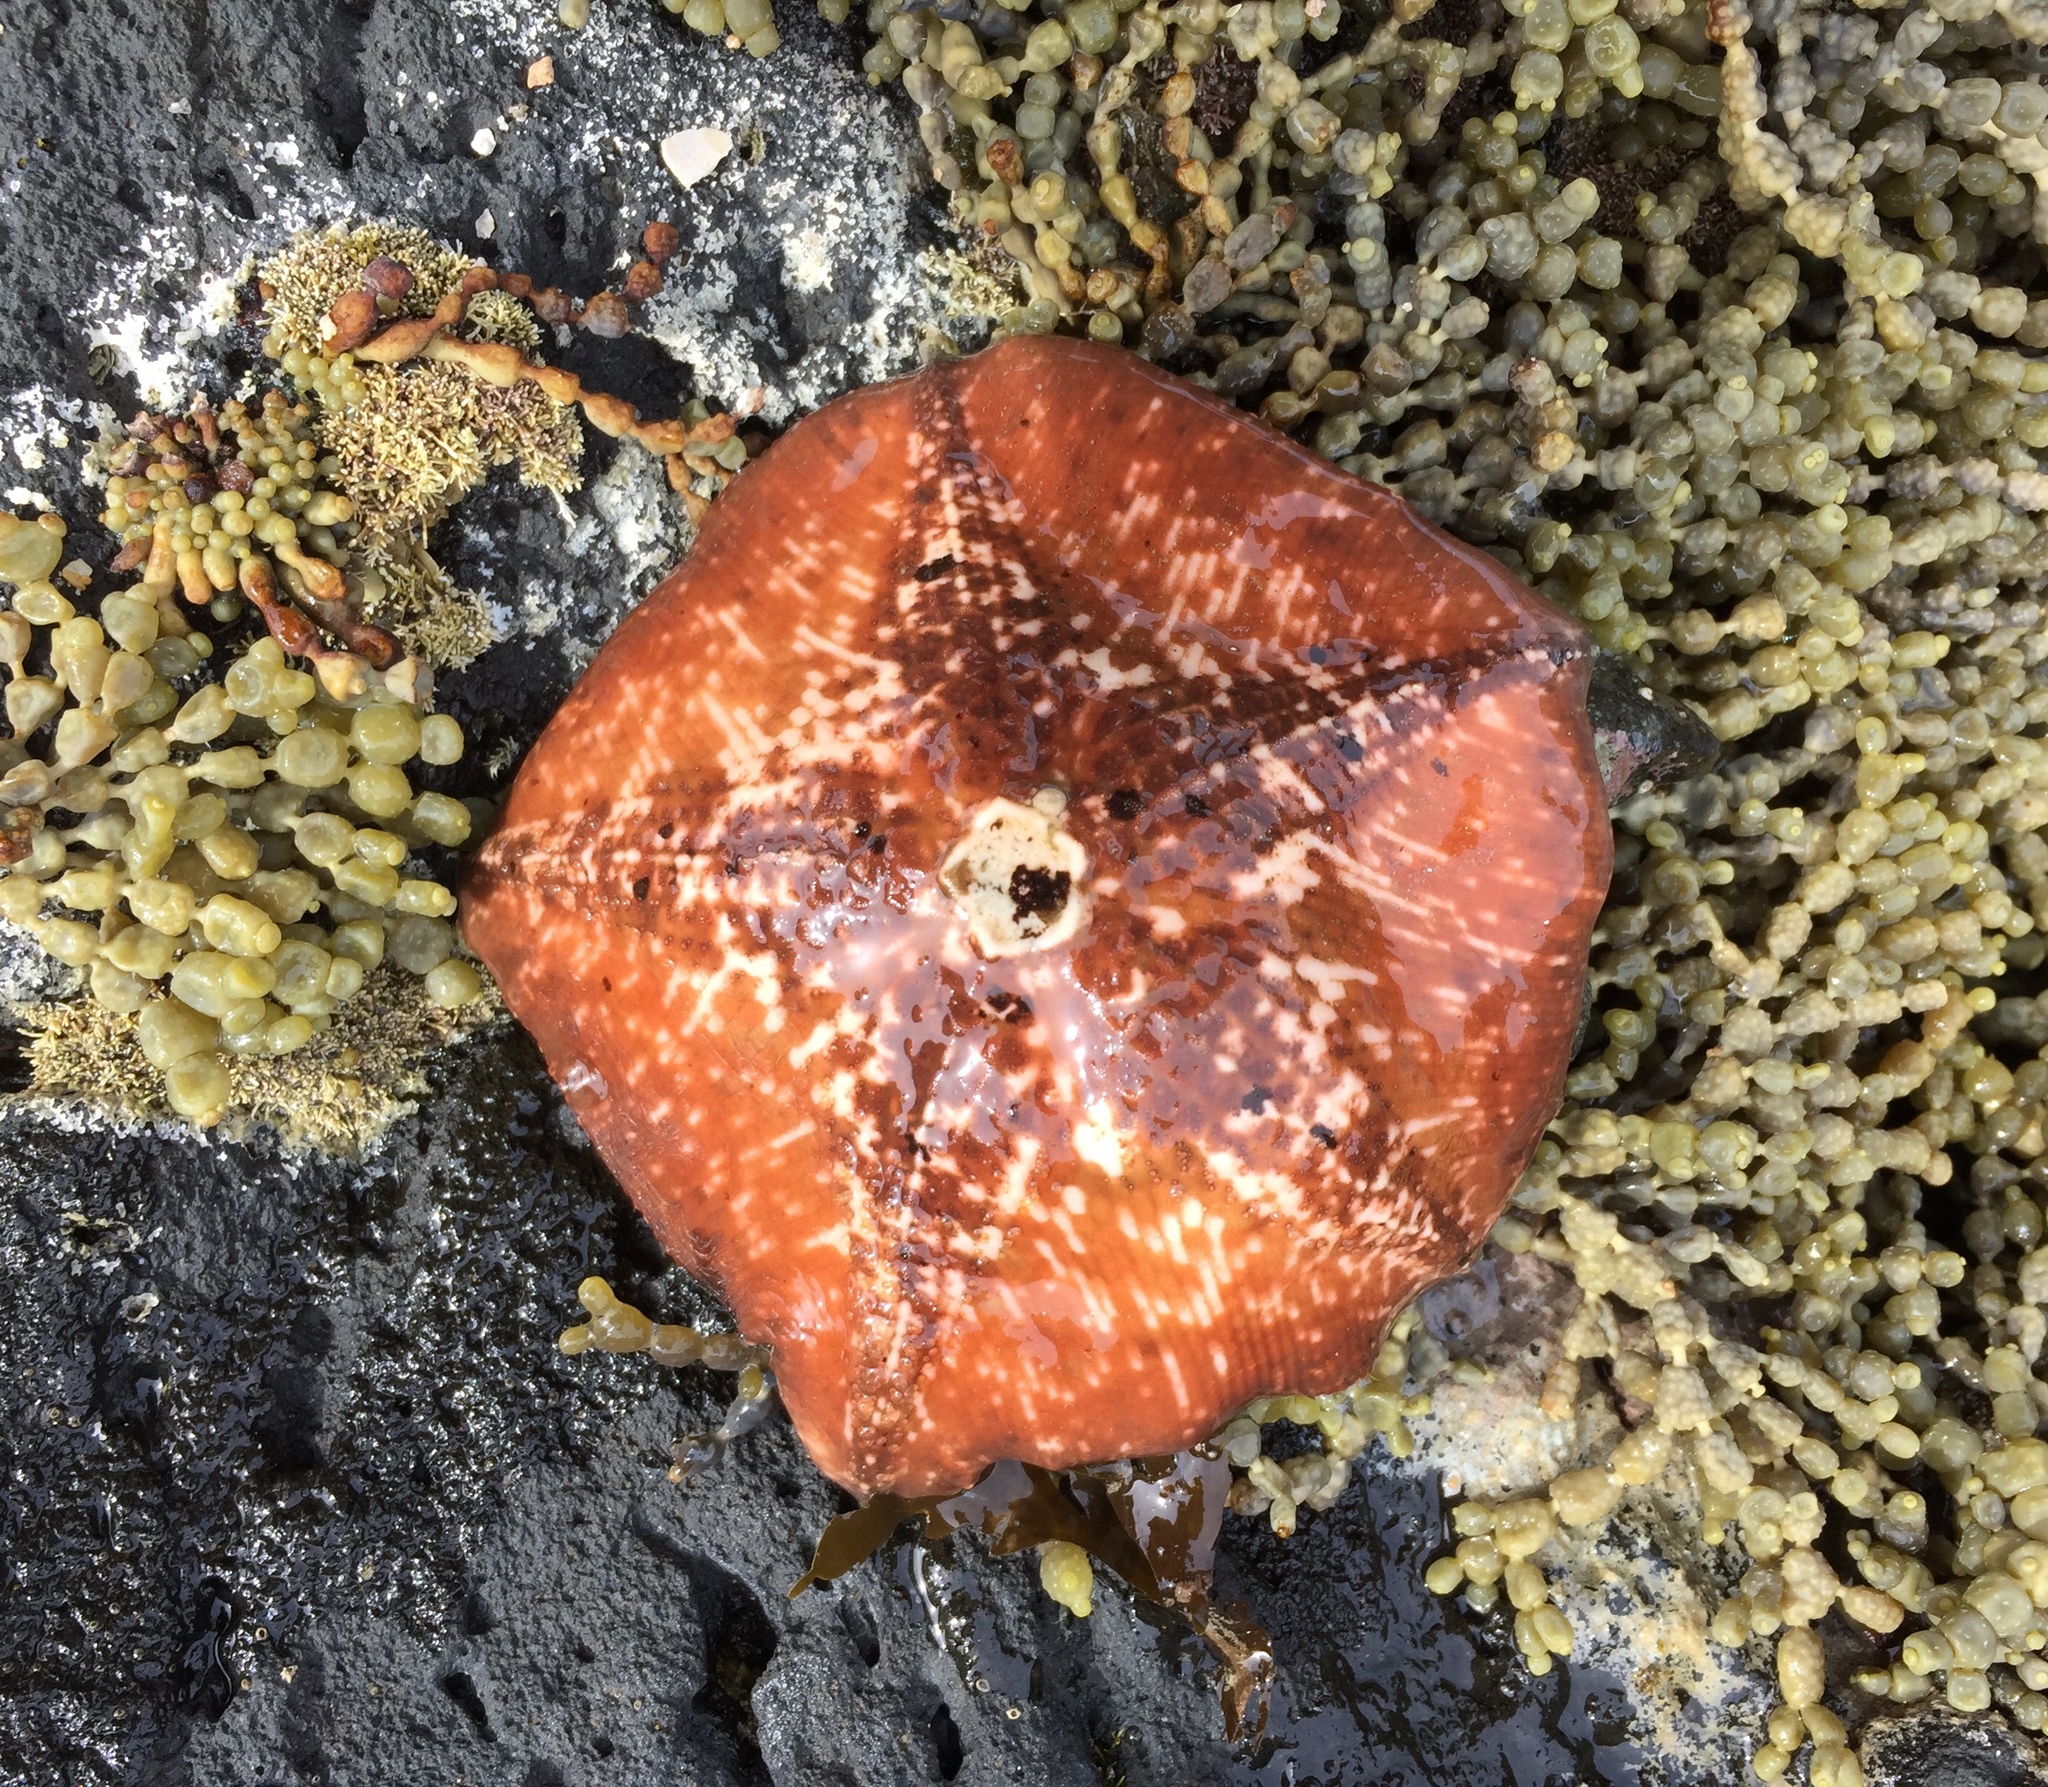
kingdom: Animalia
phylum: Echinodermata
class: Asteroidea
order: Valvatida
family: Asterinidae
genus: Stegnaster
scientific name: Stegnaster inflatus
